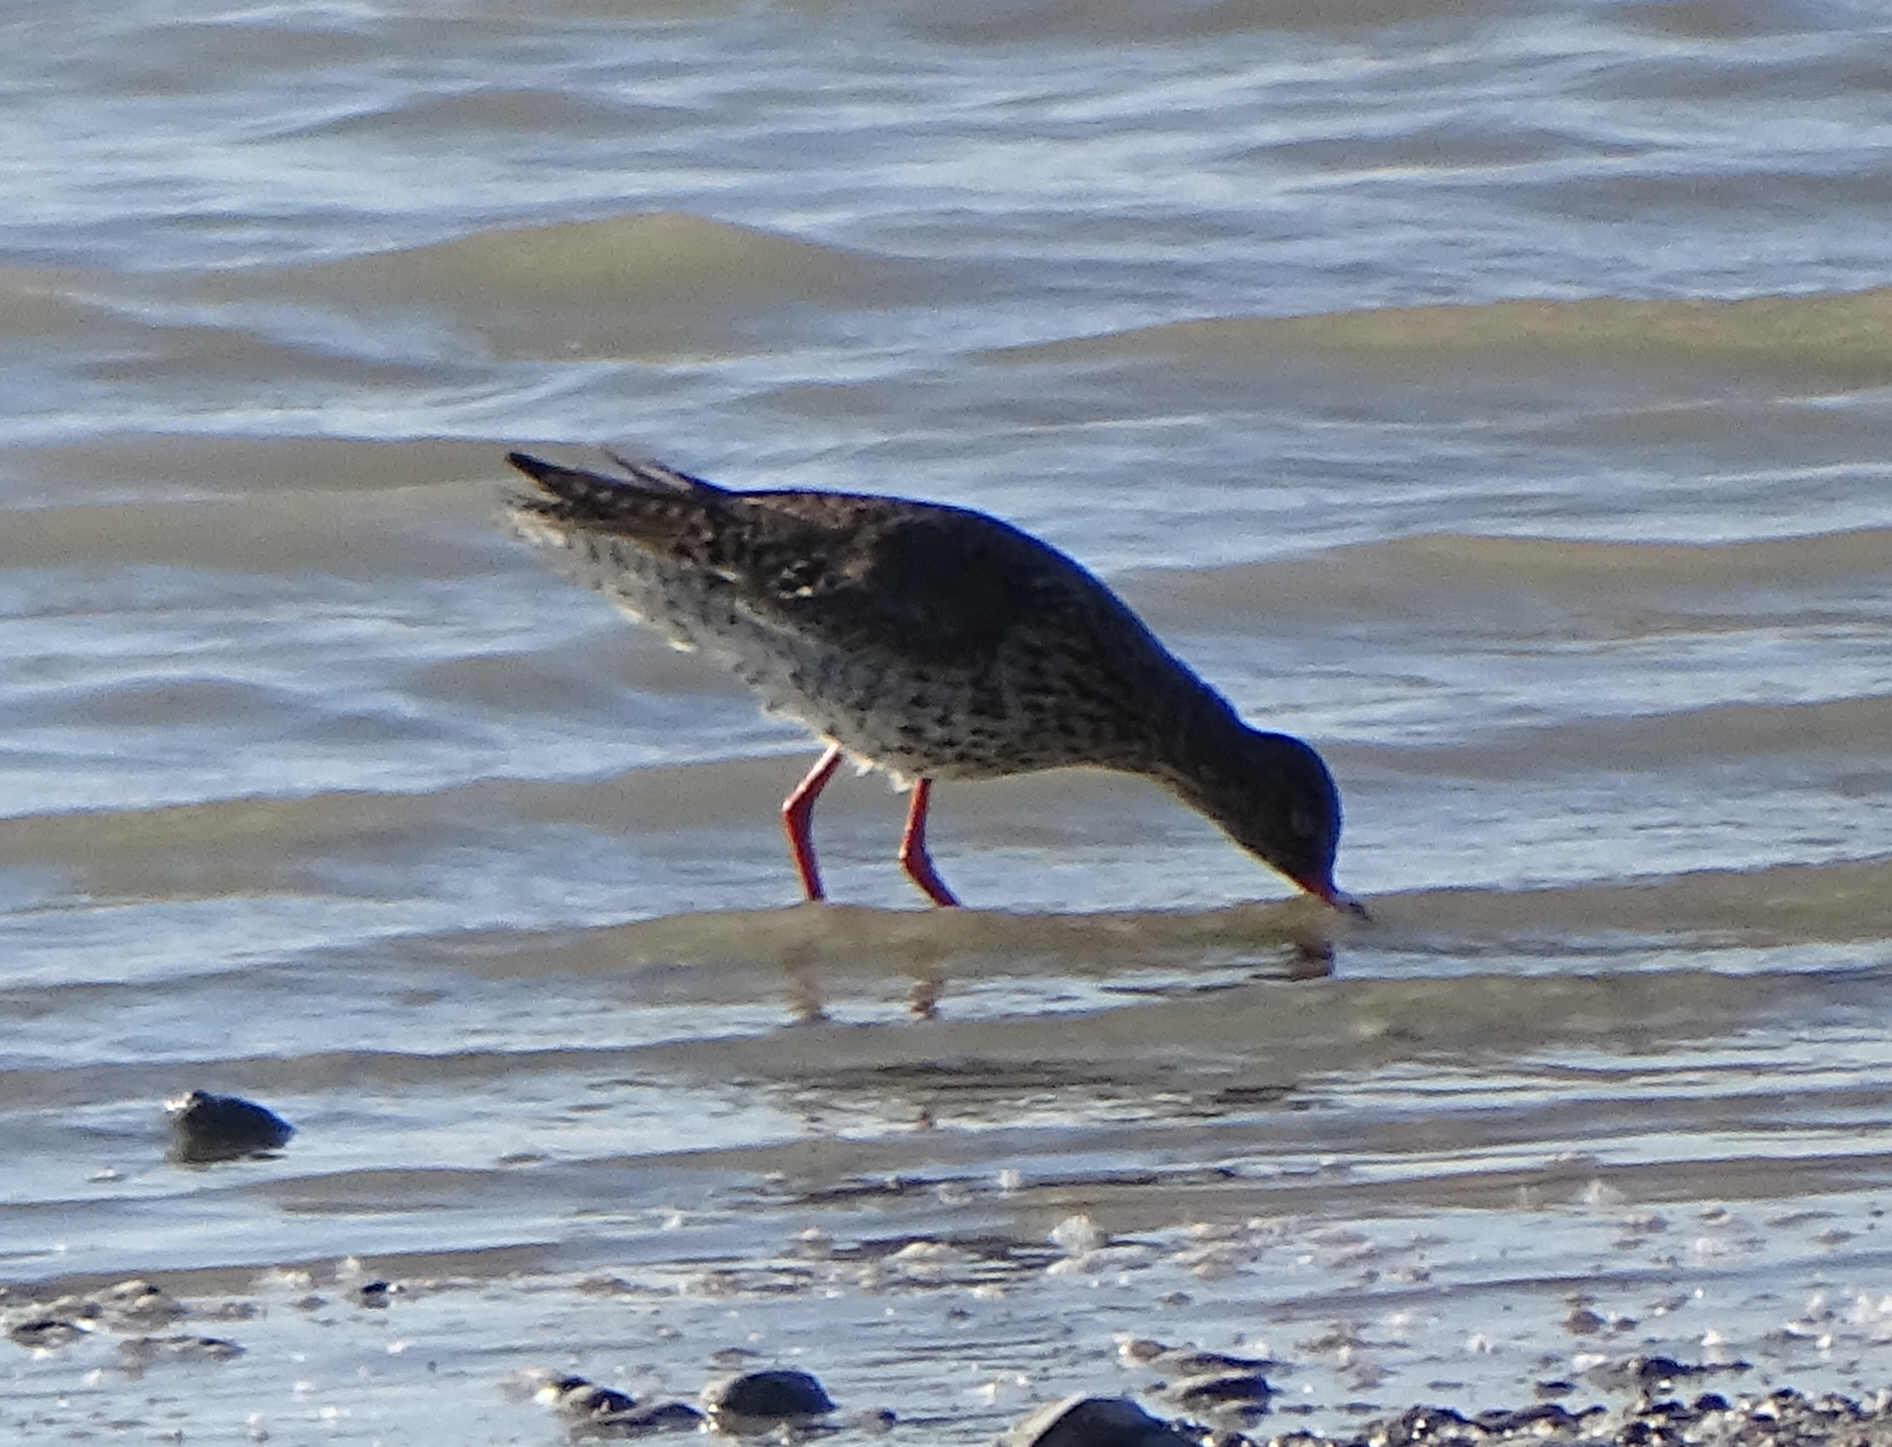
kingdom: Animalia
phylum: Chordata
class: Aves
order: Charadriiformes
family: Scolopacidae
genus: Tringa
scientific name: Tringa totanus
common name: Common redshank
